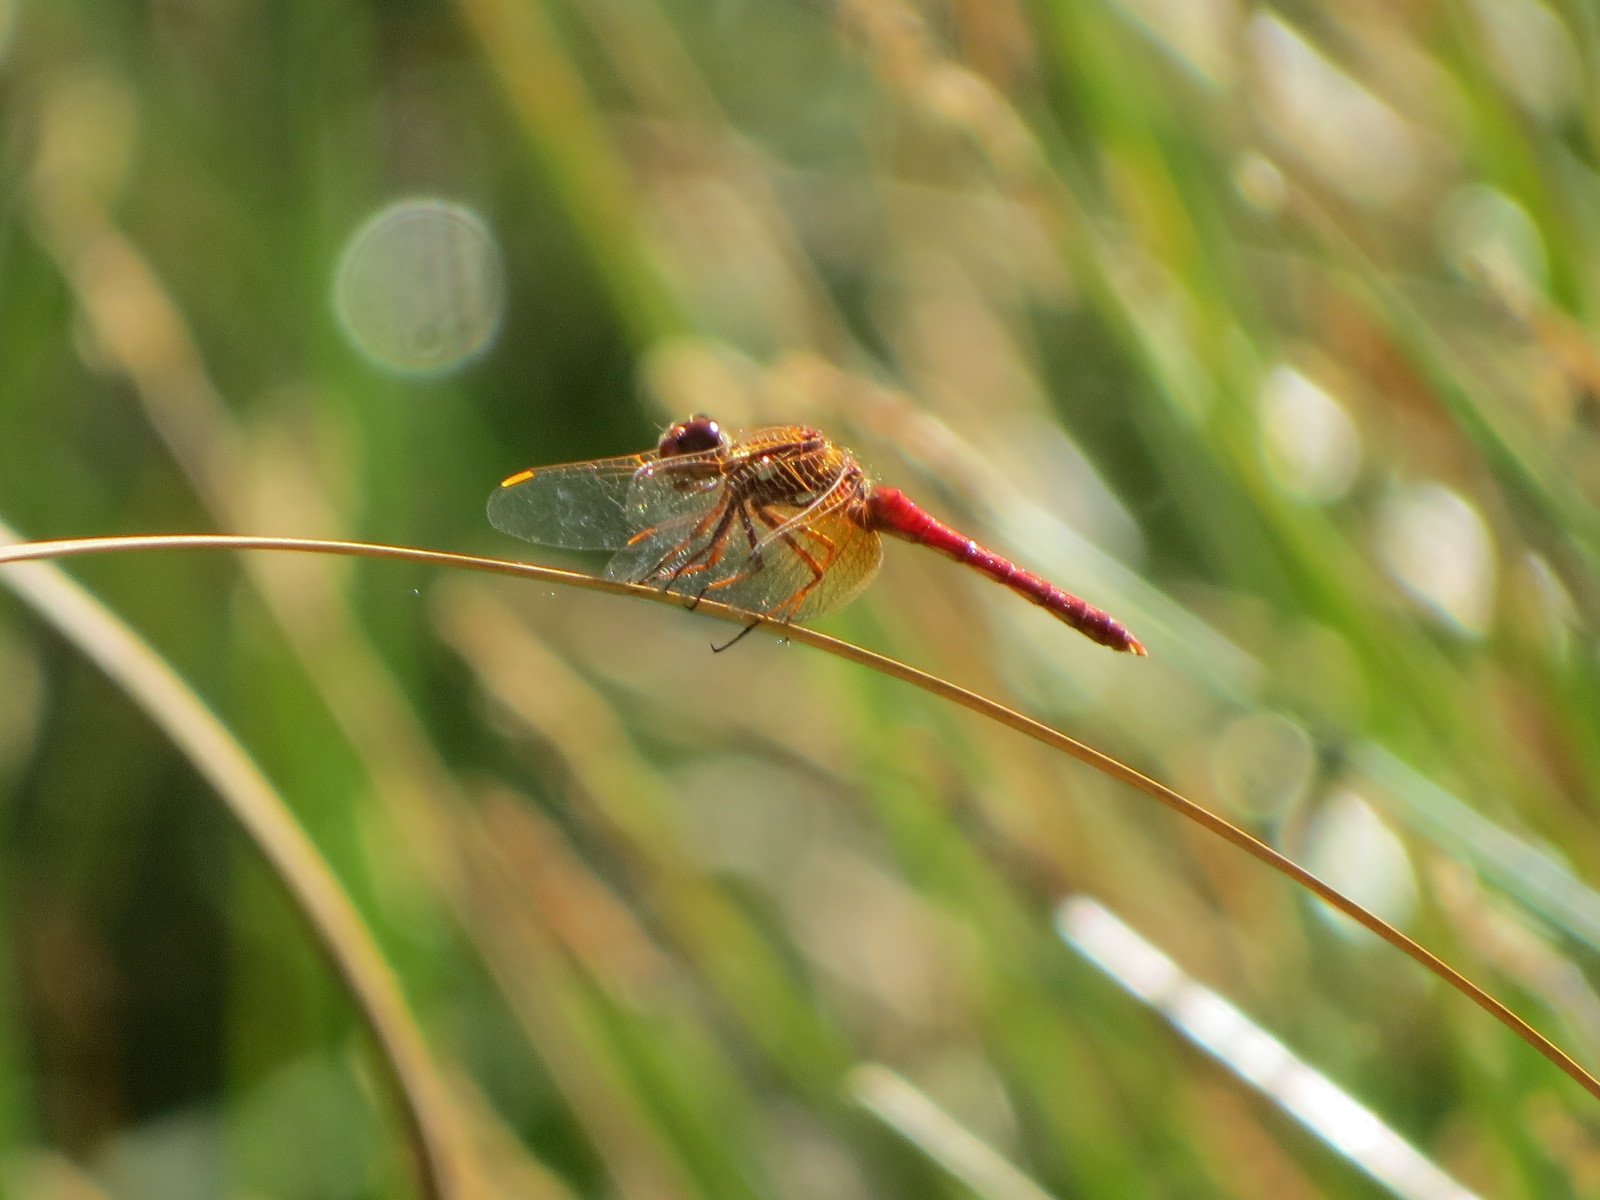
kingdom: Animalia
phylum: Arthropoda
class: Insecta
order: Odonata
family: Libellulidae
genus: Sympetrum
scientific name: Sympetrum illotum
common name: Cardinal meadowhawk
